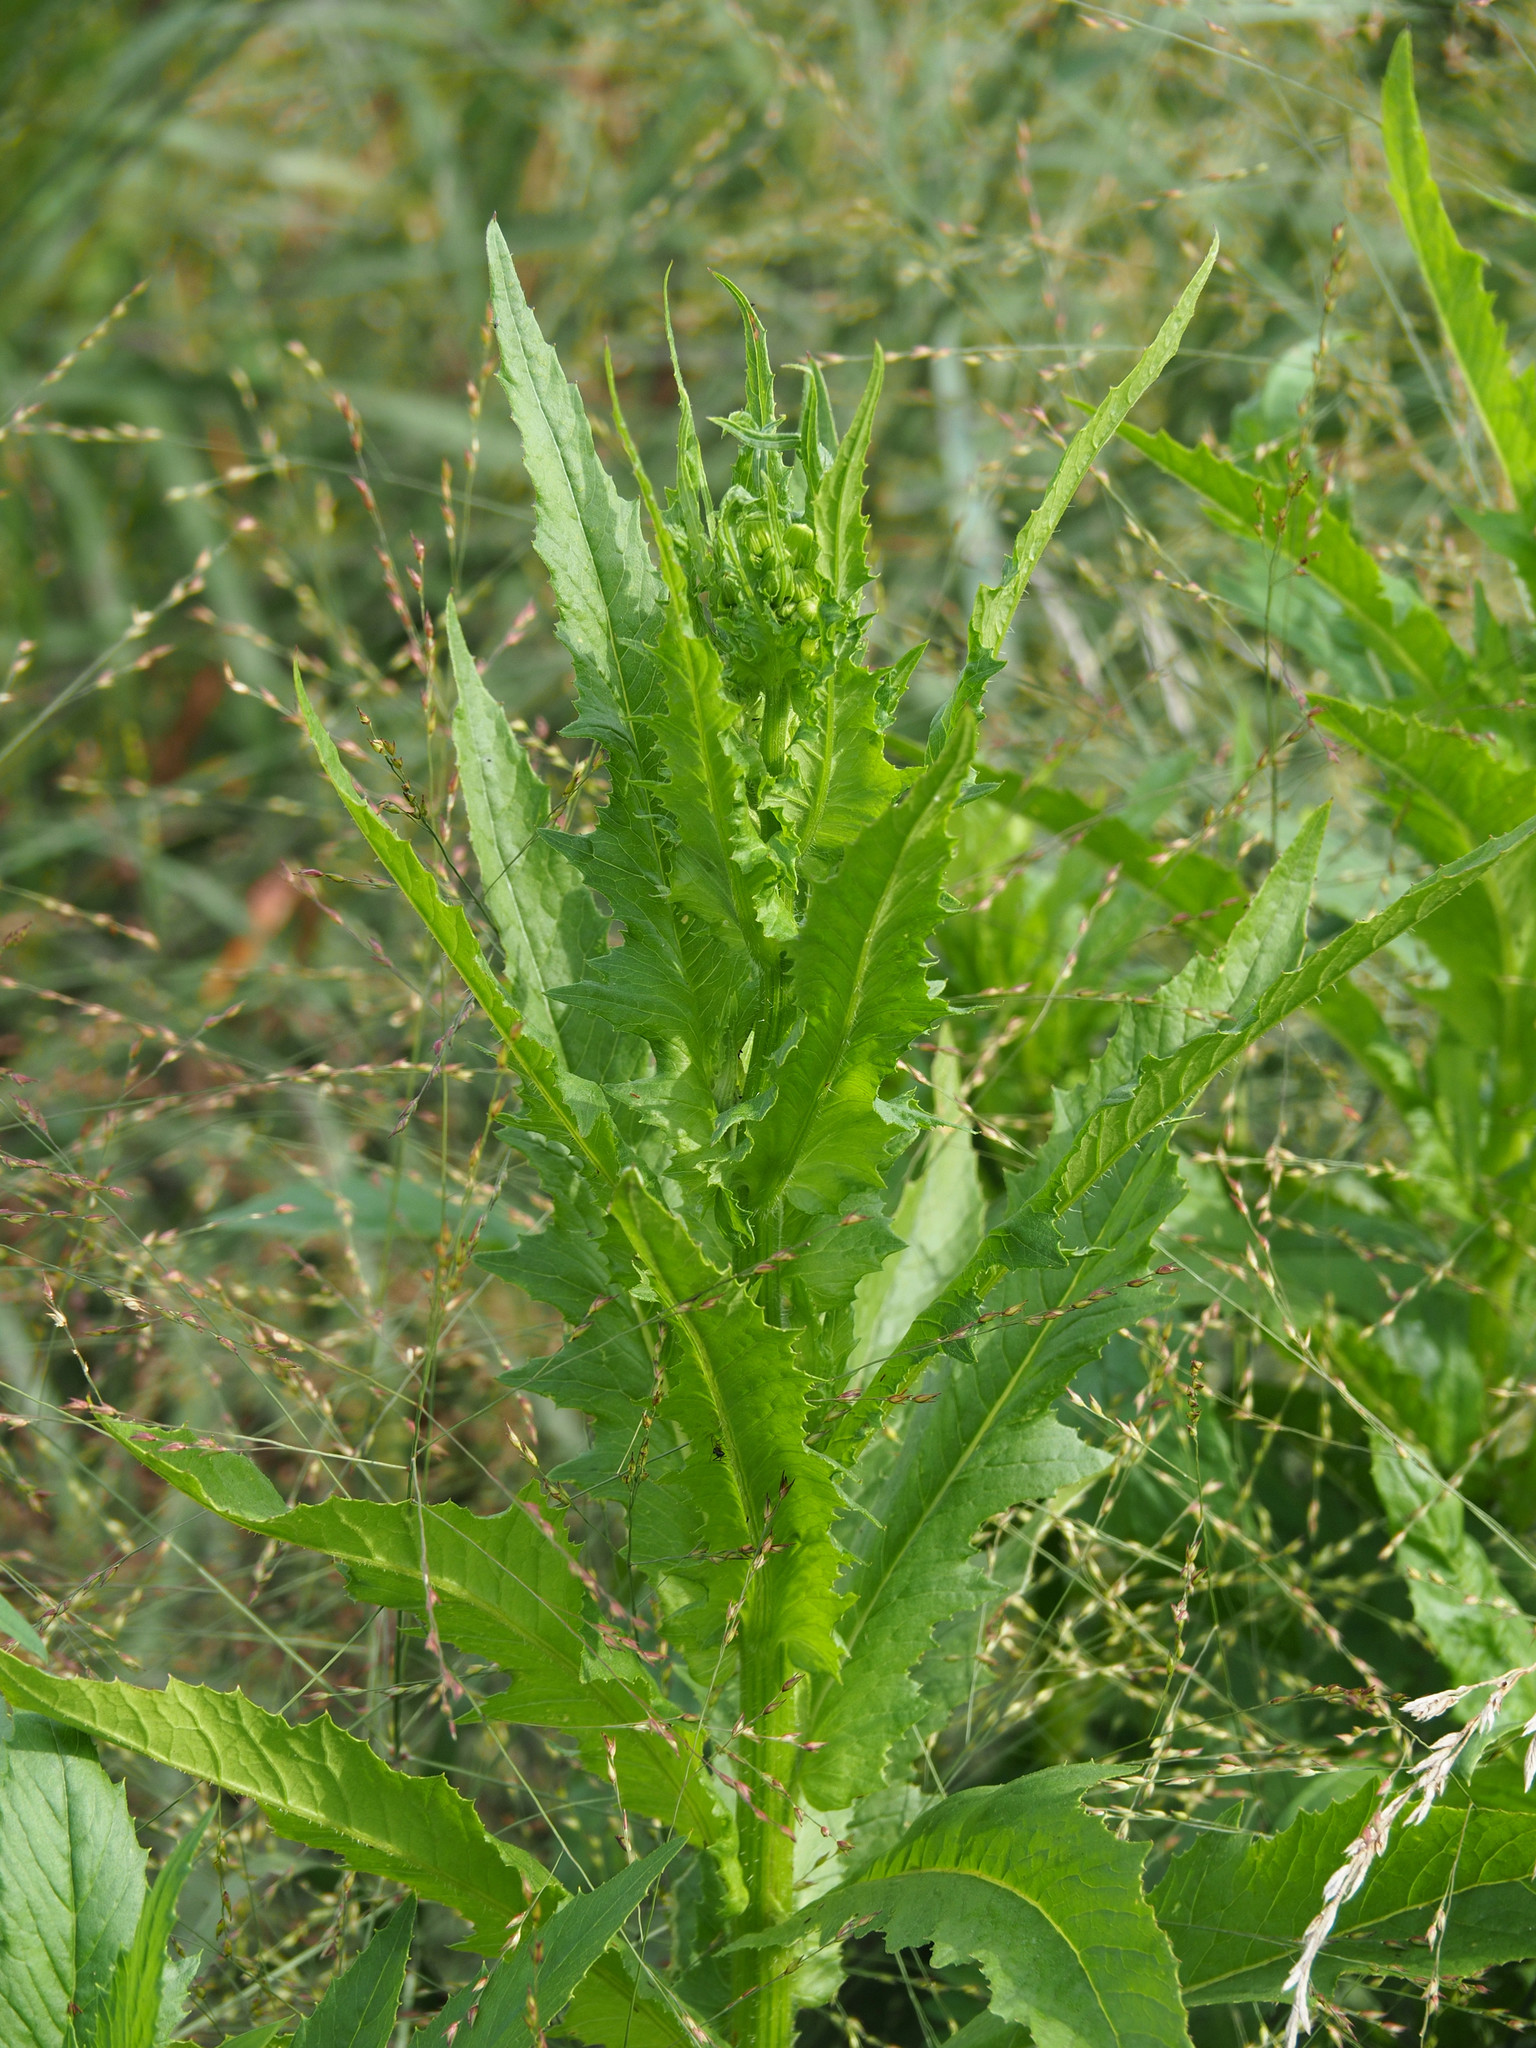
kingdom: Plantae
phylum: Tracheophyta
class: Magnoliopsida
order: Asterales
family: Asteraceae
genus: Erechtites
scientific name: Erechtites hieraciifolius
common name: American burnweed
